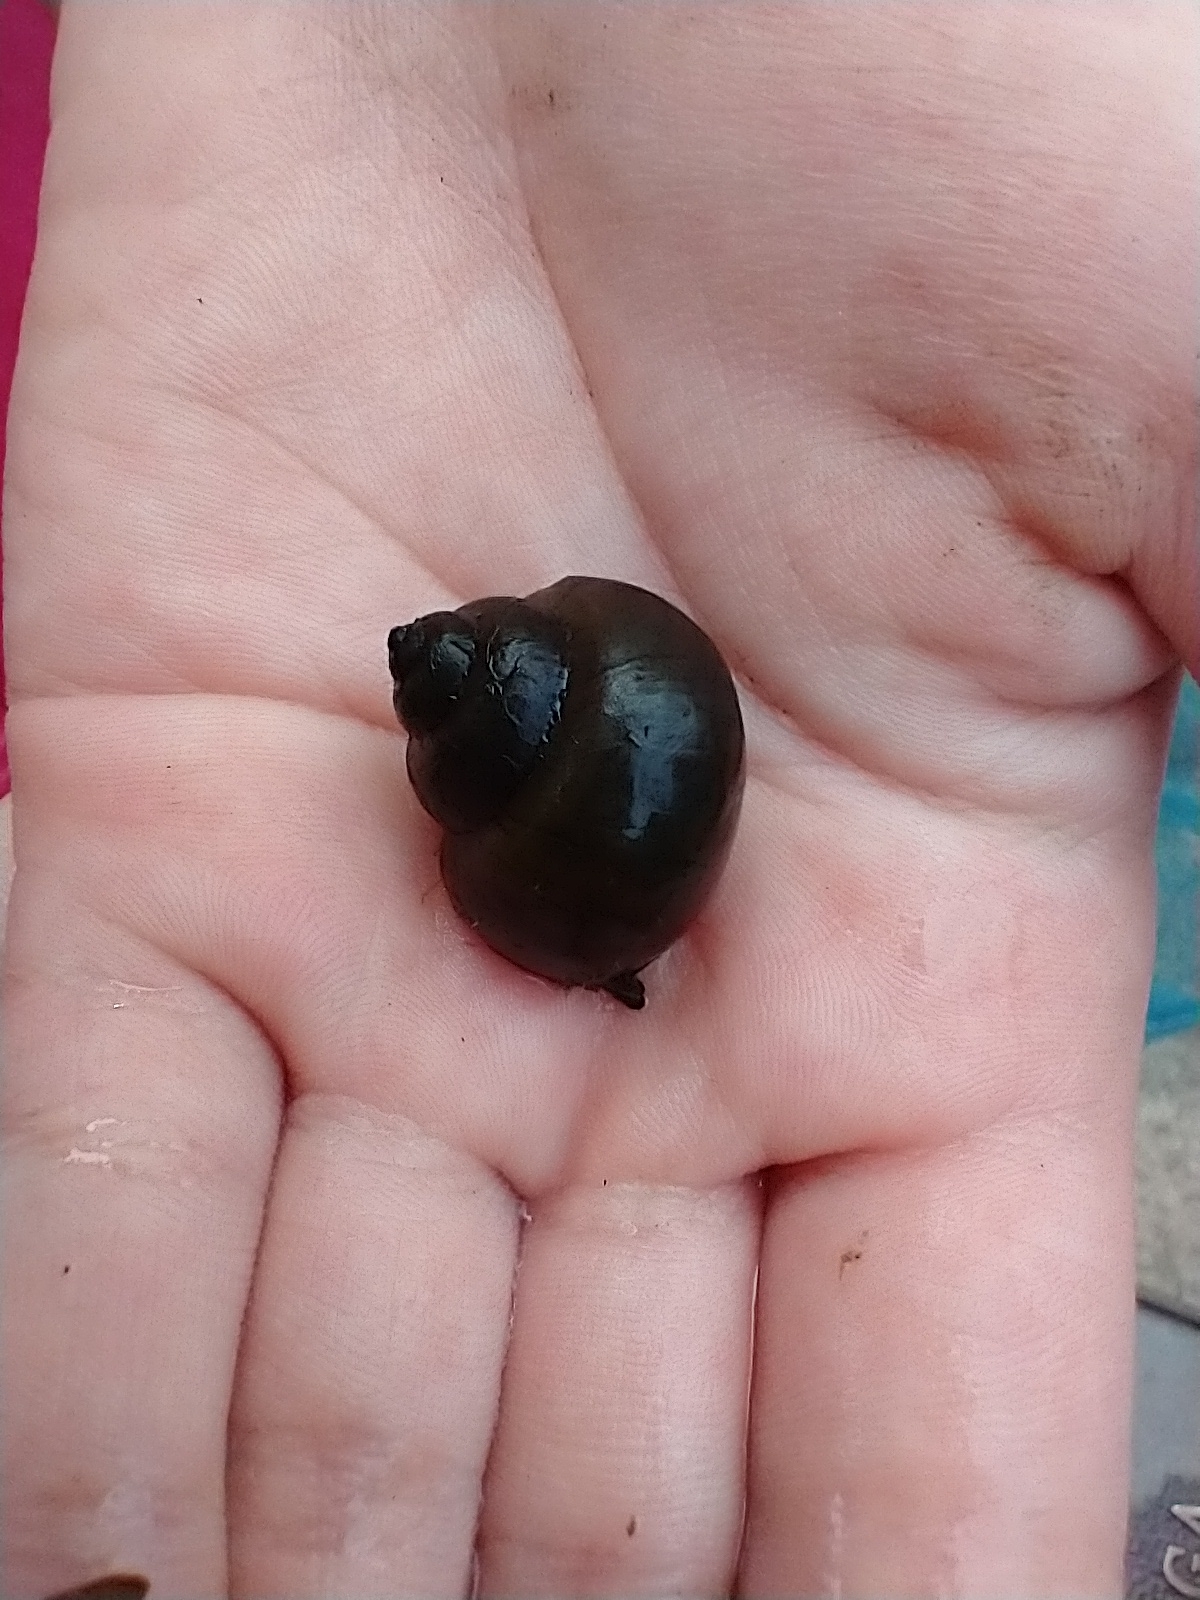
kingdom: Animalia
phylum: Mollusca
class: Gastropoda
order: Architaenioglossa
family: Viviparidae
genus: Cipangopaludina
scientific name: Cipangopaludina chinensis
